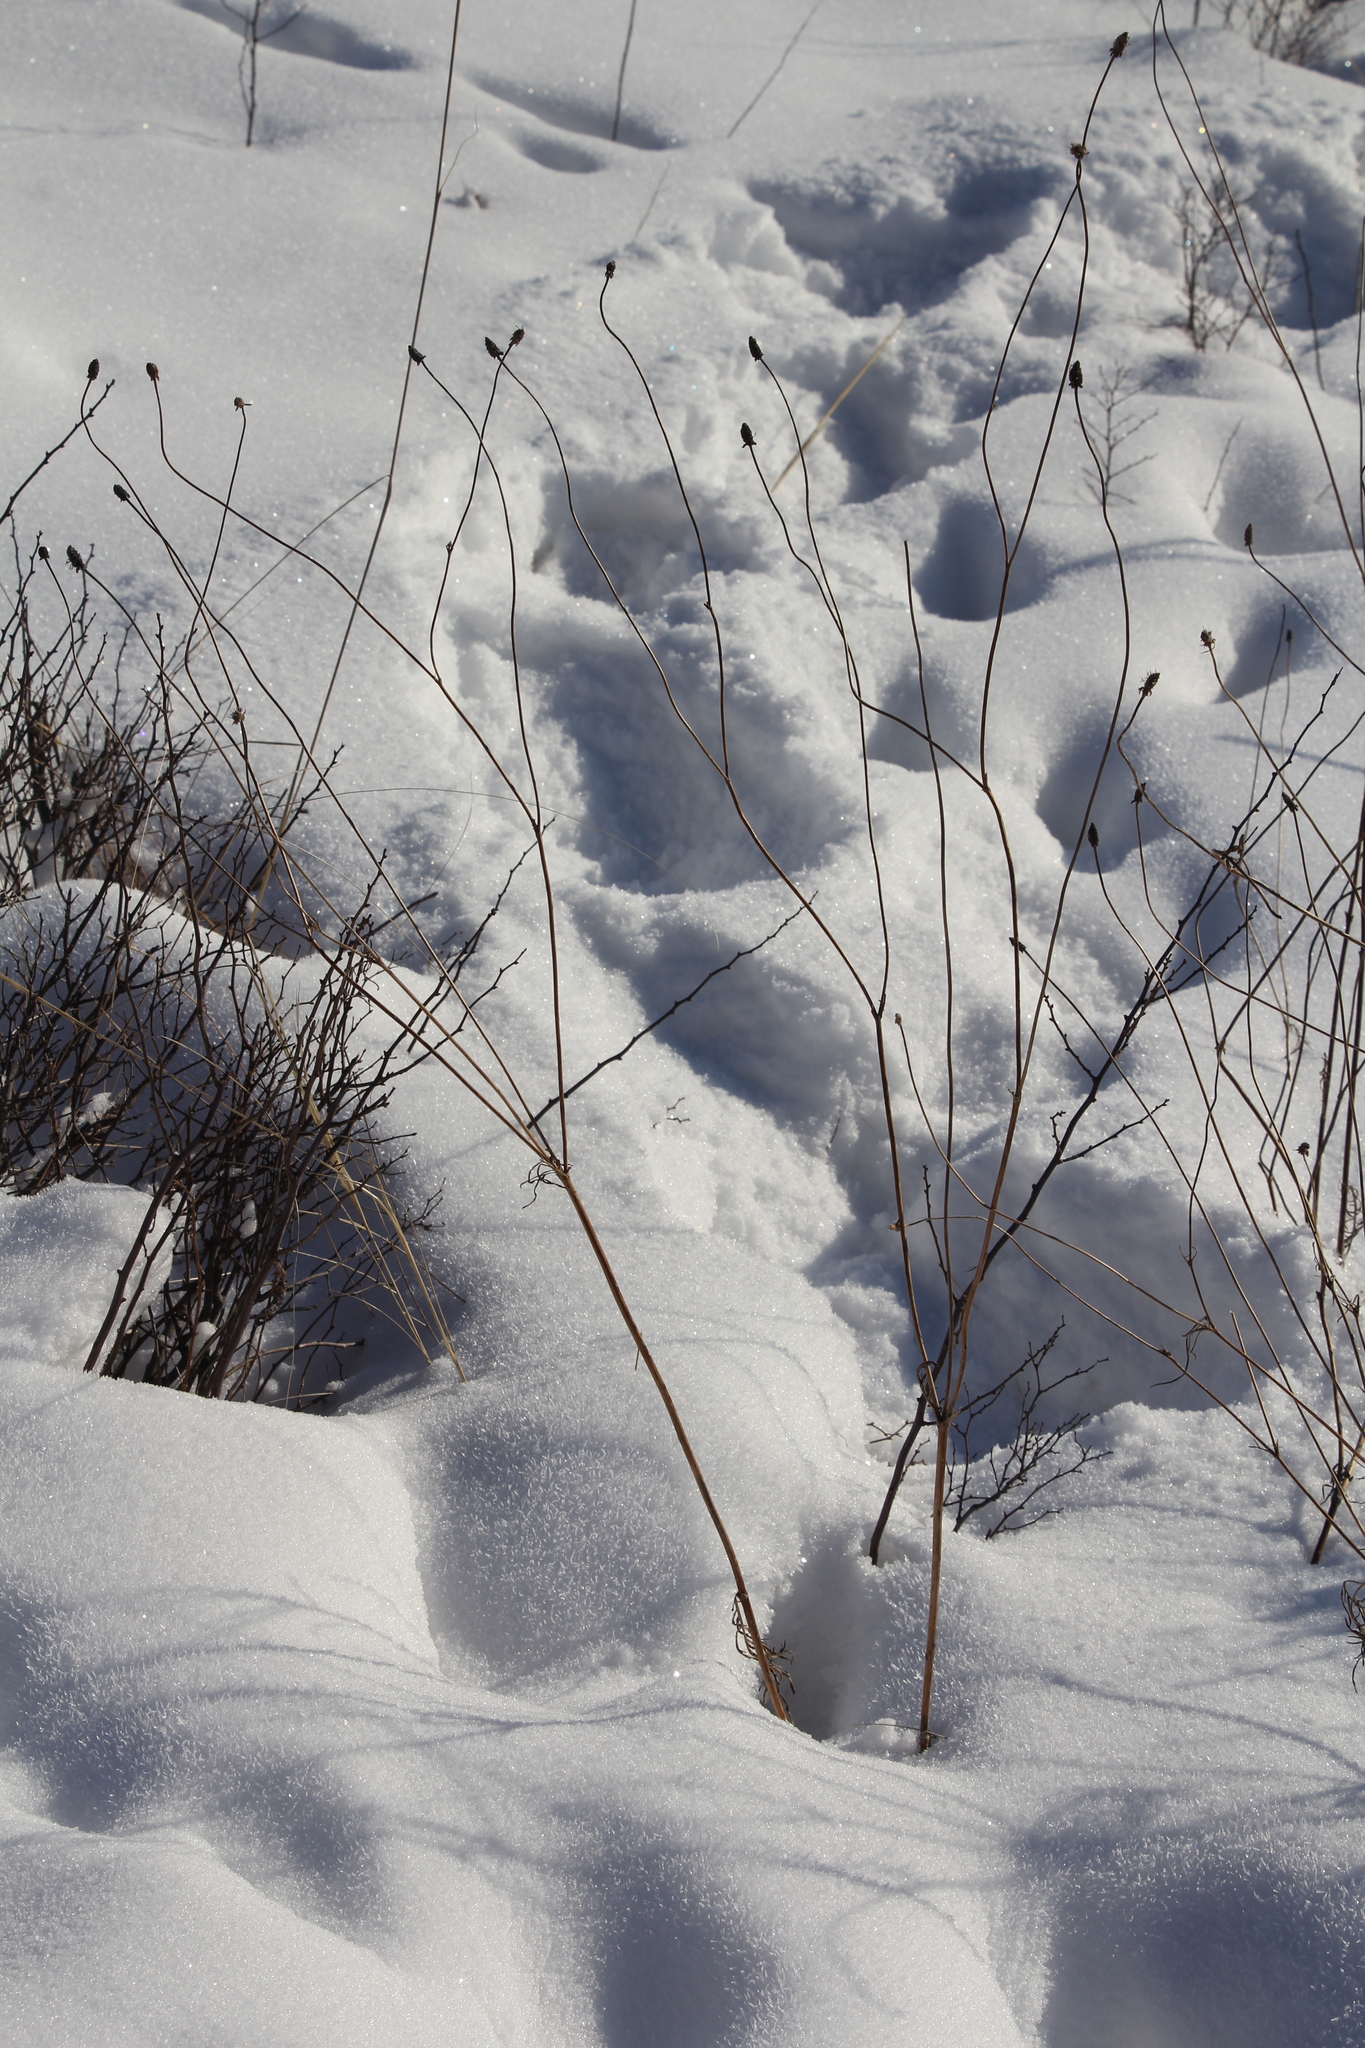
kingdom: Plantae
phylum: Tracheophyta
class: Magnoliopsida
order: Dipsacales
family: Caprifoliaceae
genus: Scabiosa
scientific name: Scabiosa ochroleuca
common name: Cream pincushions
